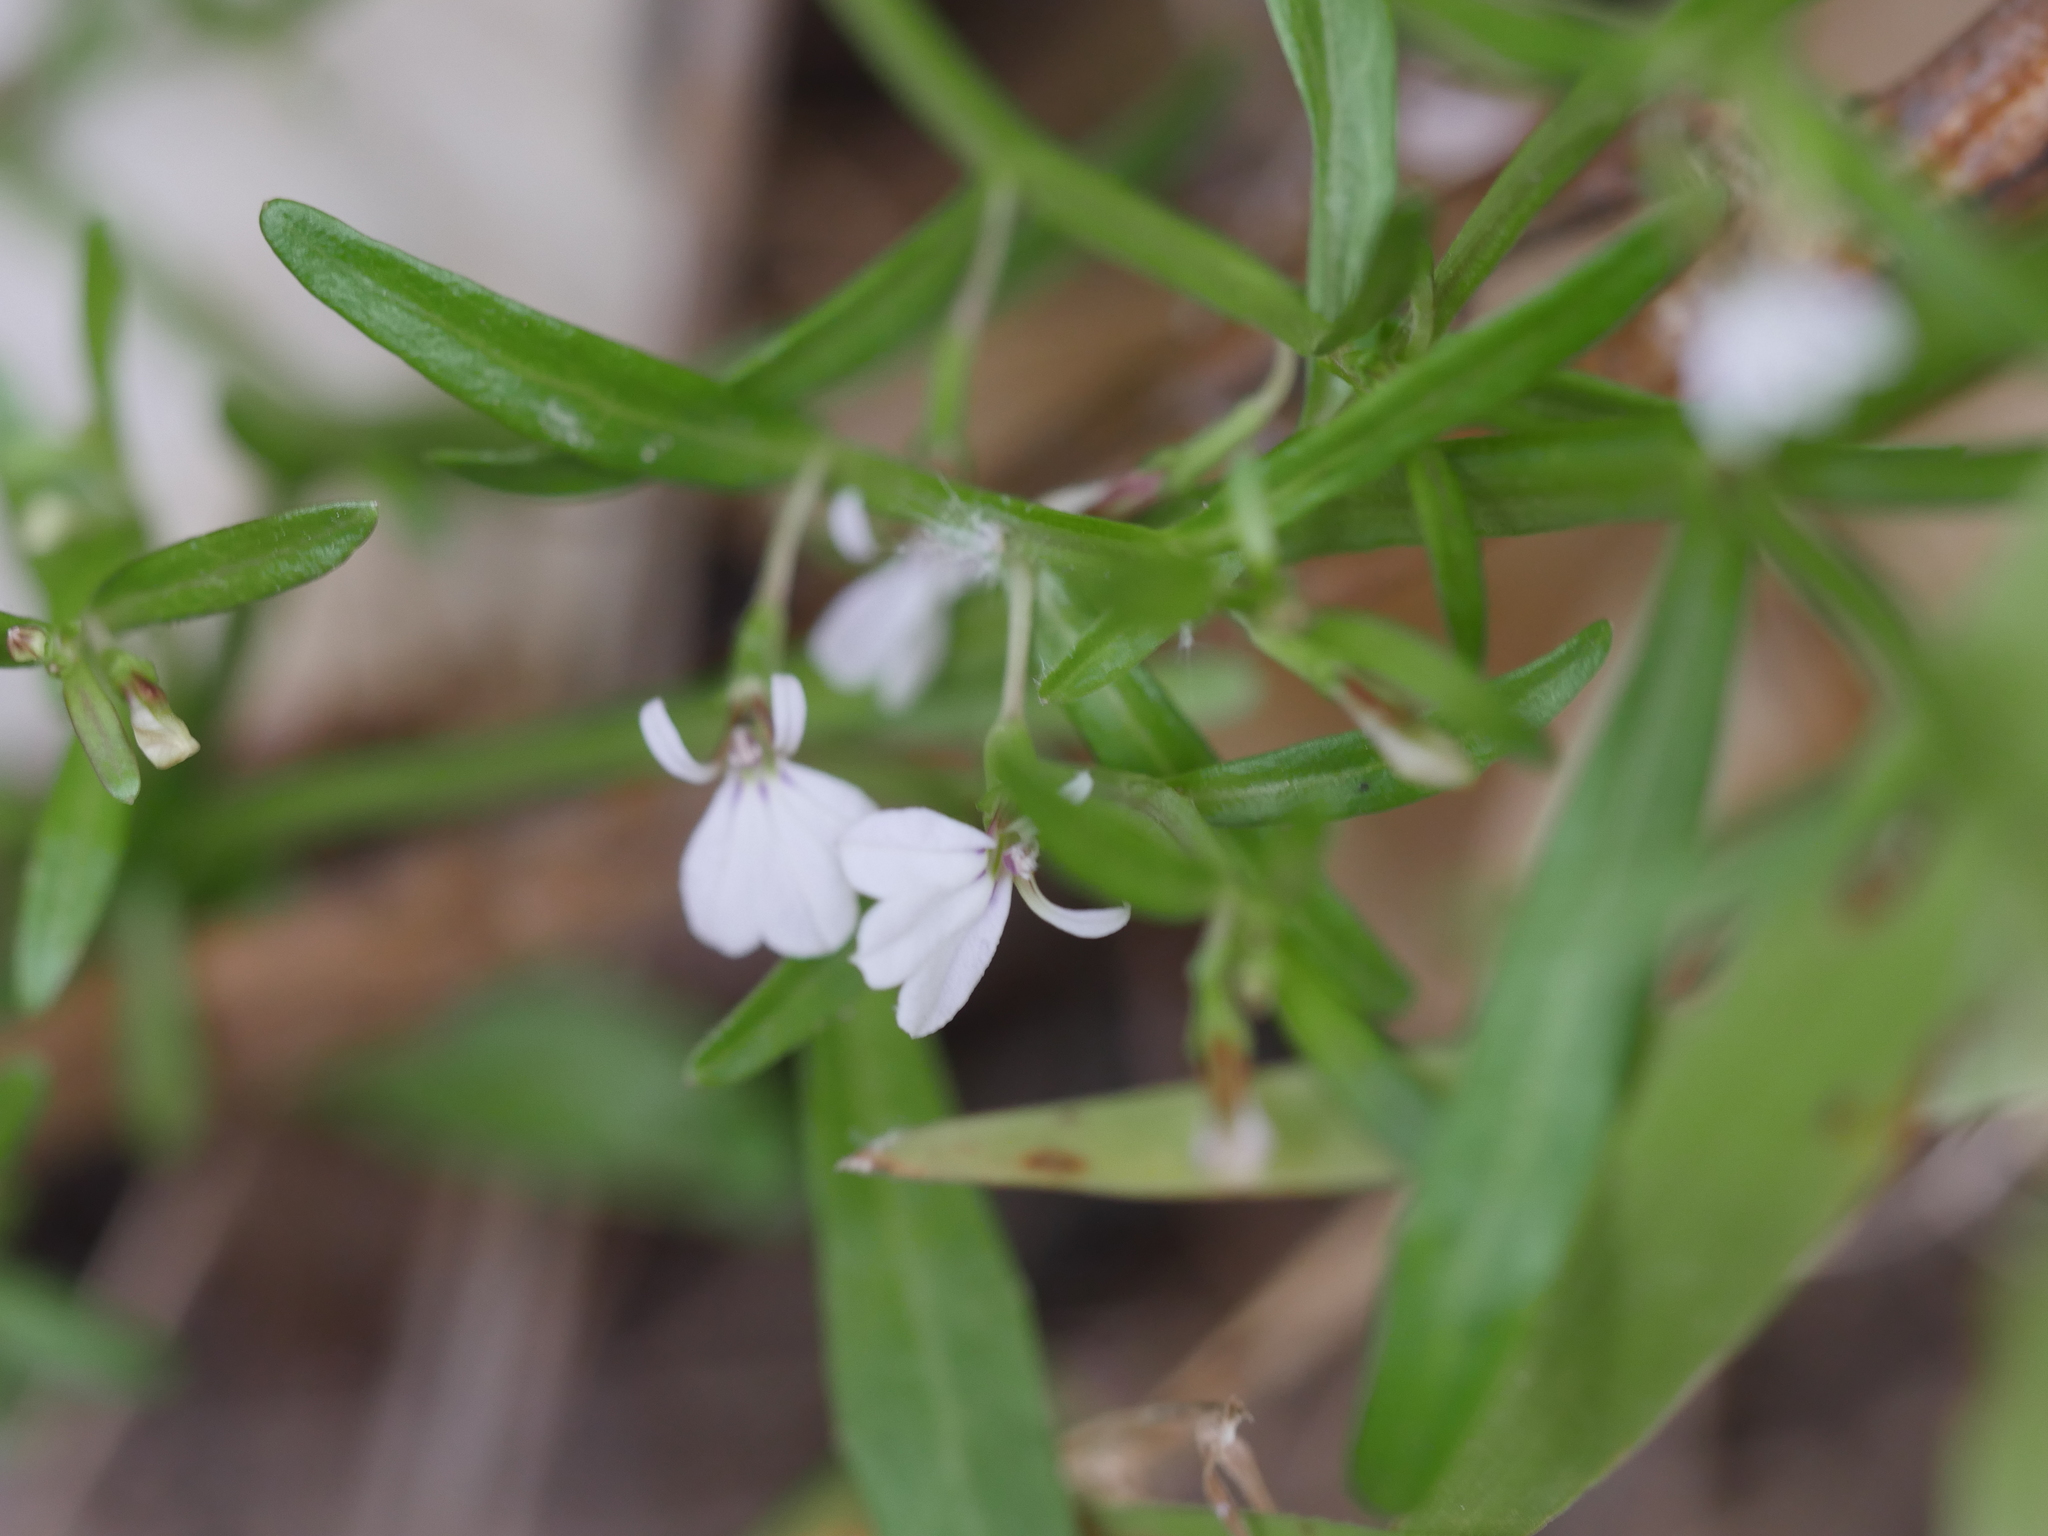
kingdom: Plantae
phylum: Tracheophyta
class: Magnoliopsida
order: Asterales
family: Campanulaceae
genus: Lobelia
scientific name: Lobelia anceps
